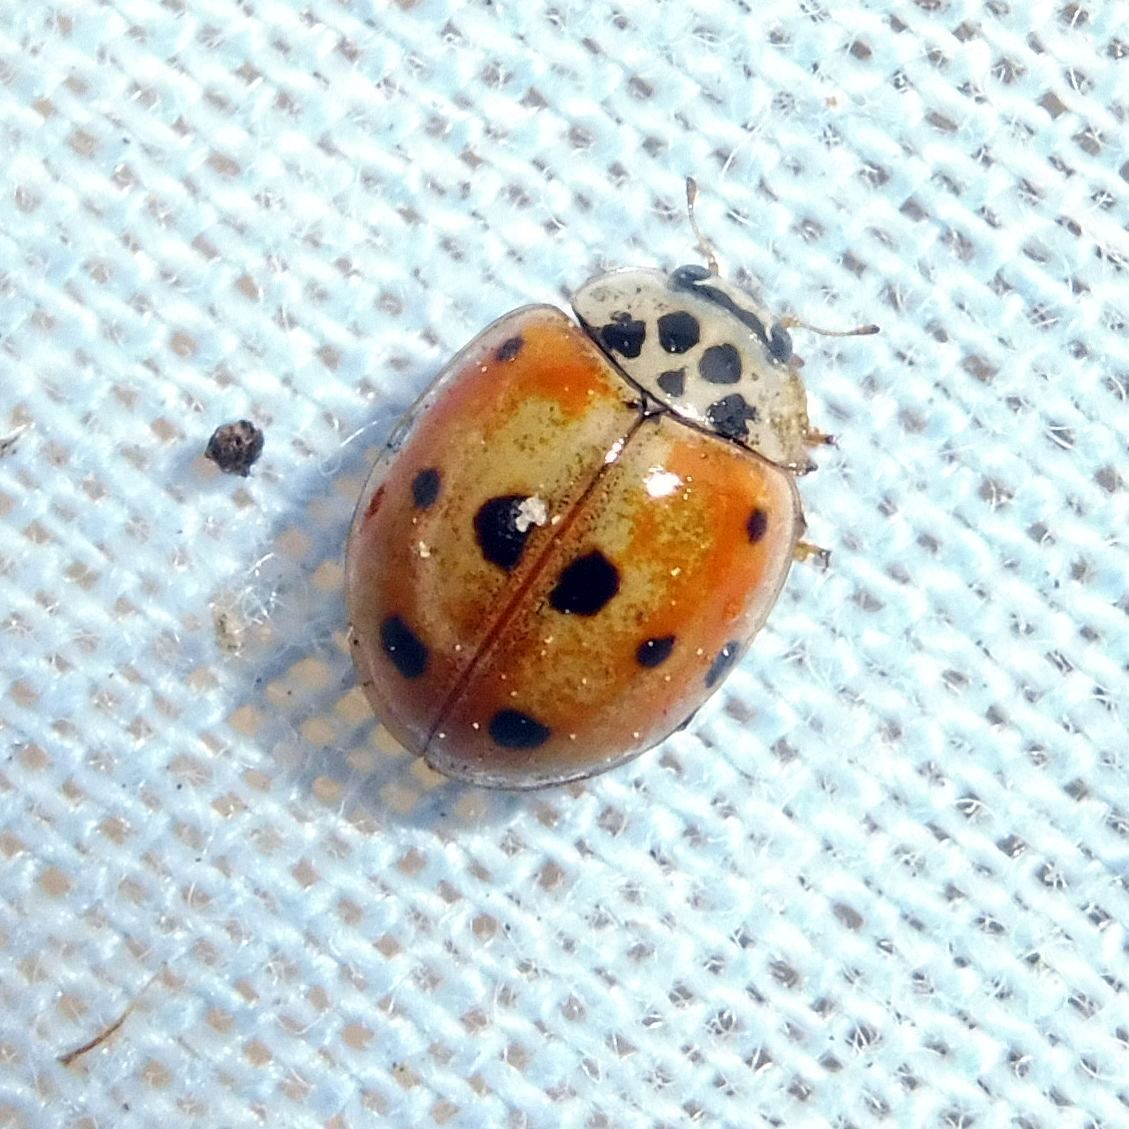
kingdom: Animalia
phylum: Arthropoda
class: Insecta
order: Coleoptera
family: Coccinellidae
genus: Adalia
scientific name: Adalia decempunctata
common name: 10-spot ladybird
